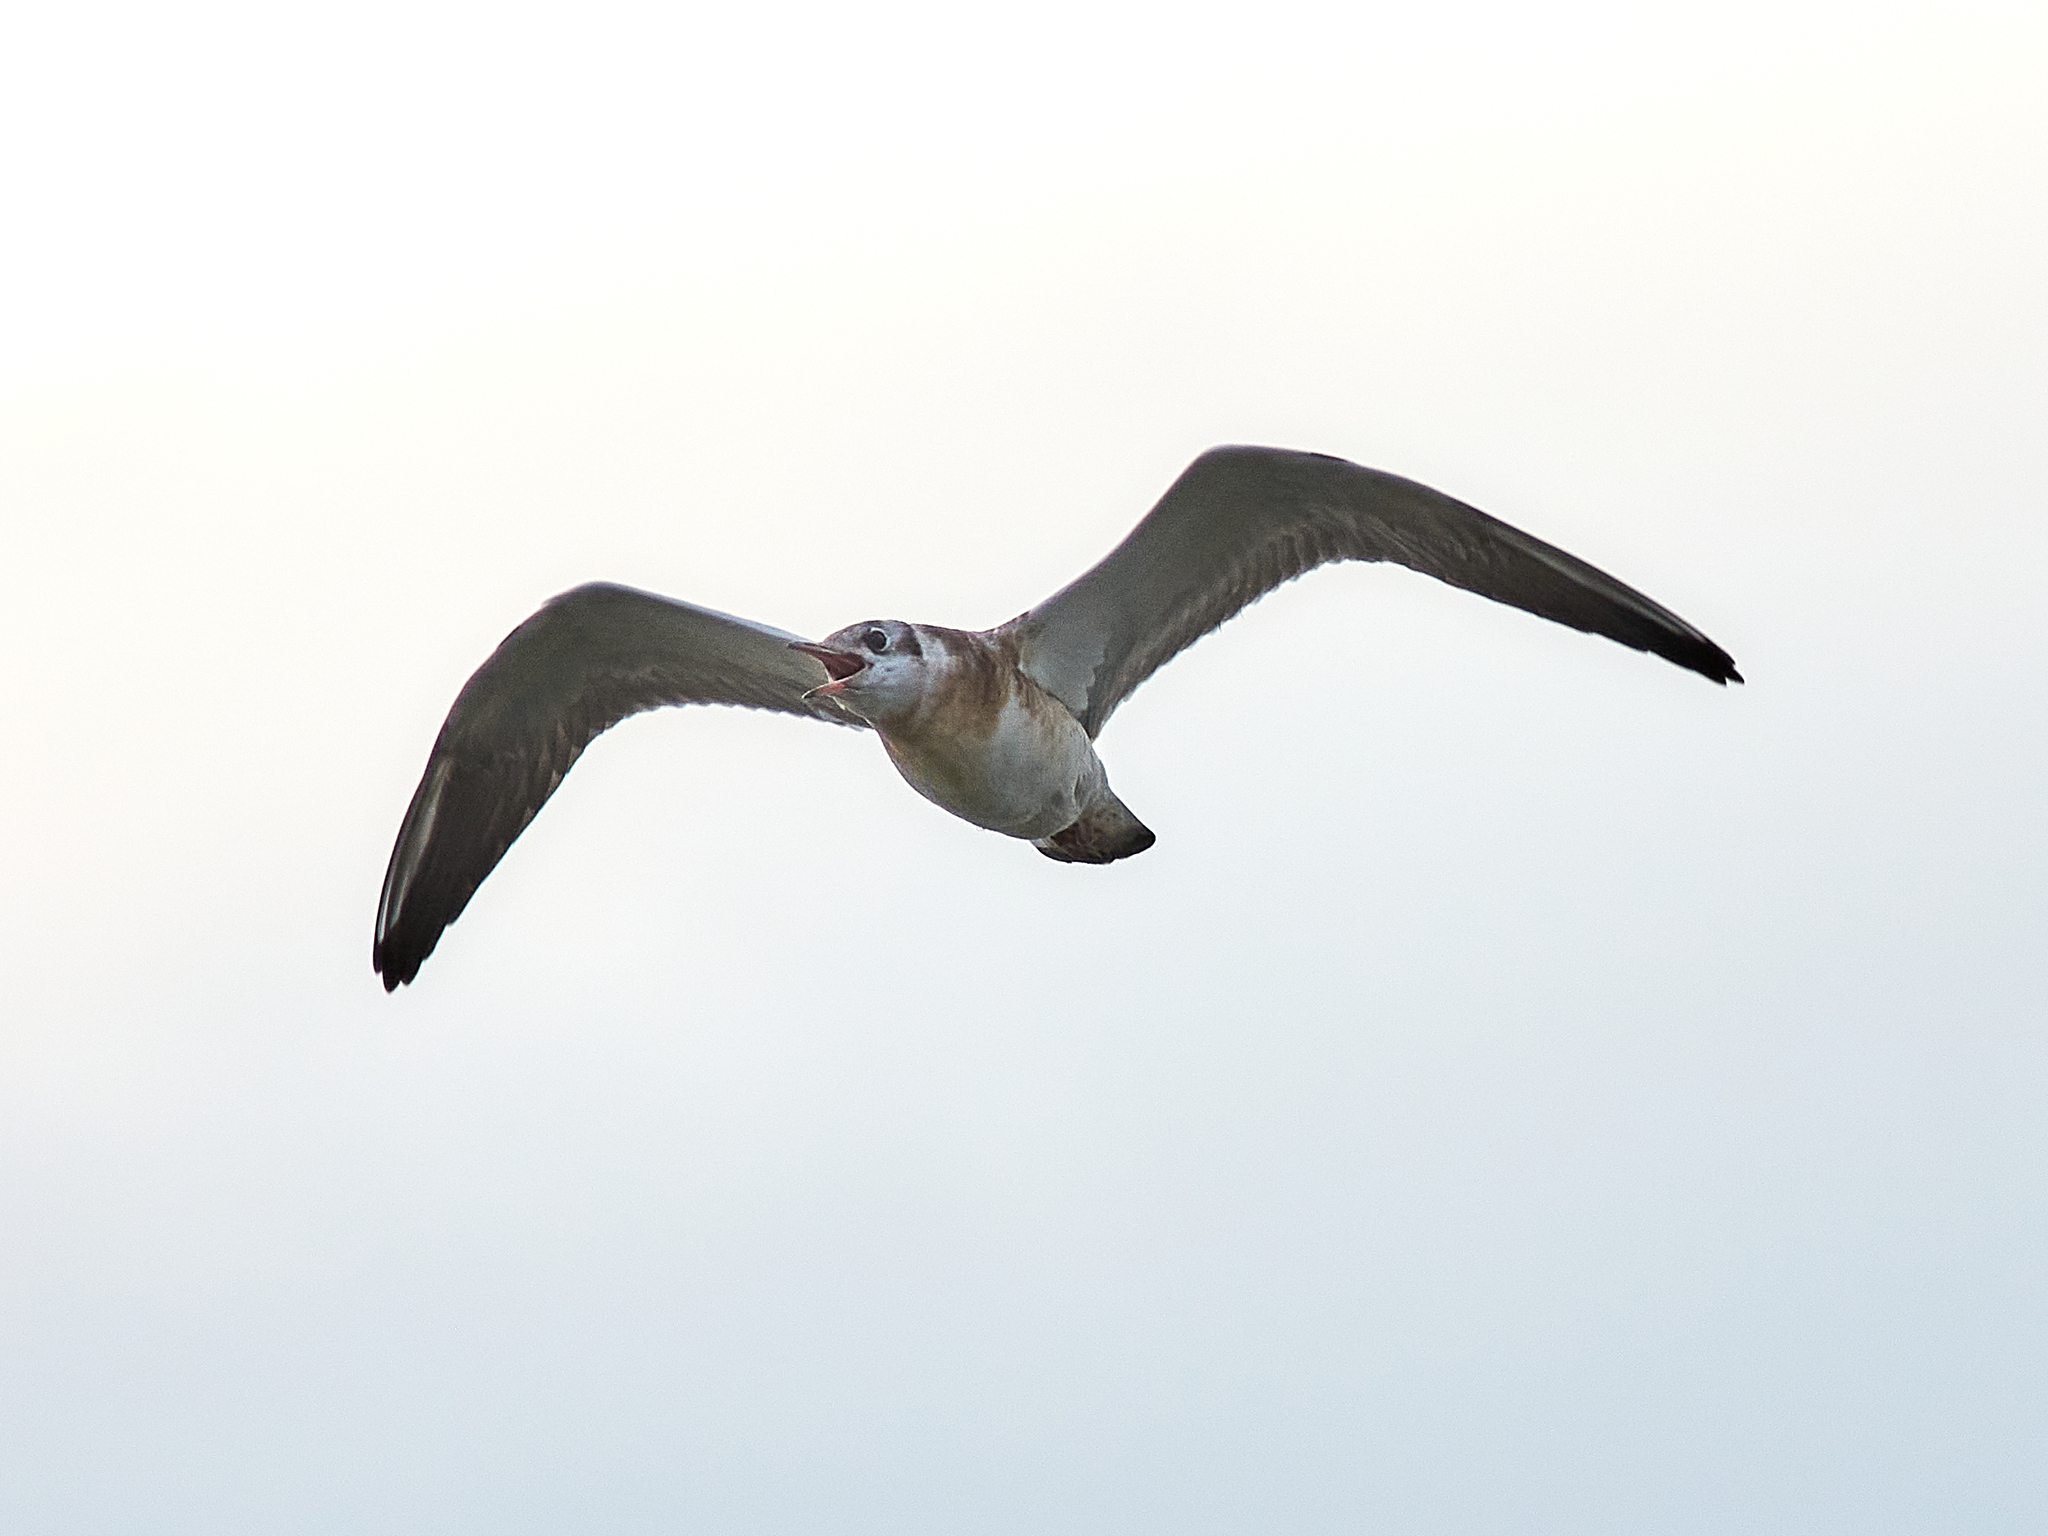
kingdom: Animalia
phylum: Chordata
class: Aves
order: Charadriiformes
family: Laridae
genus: Chroicocephalus
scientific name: Chroicocephalus ridibundus
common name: Black-headed gull
